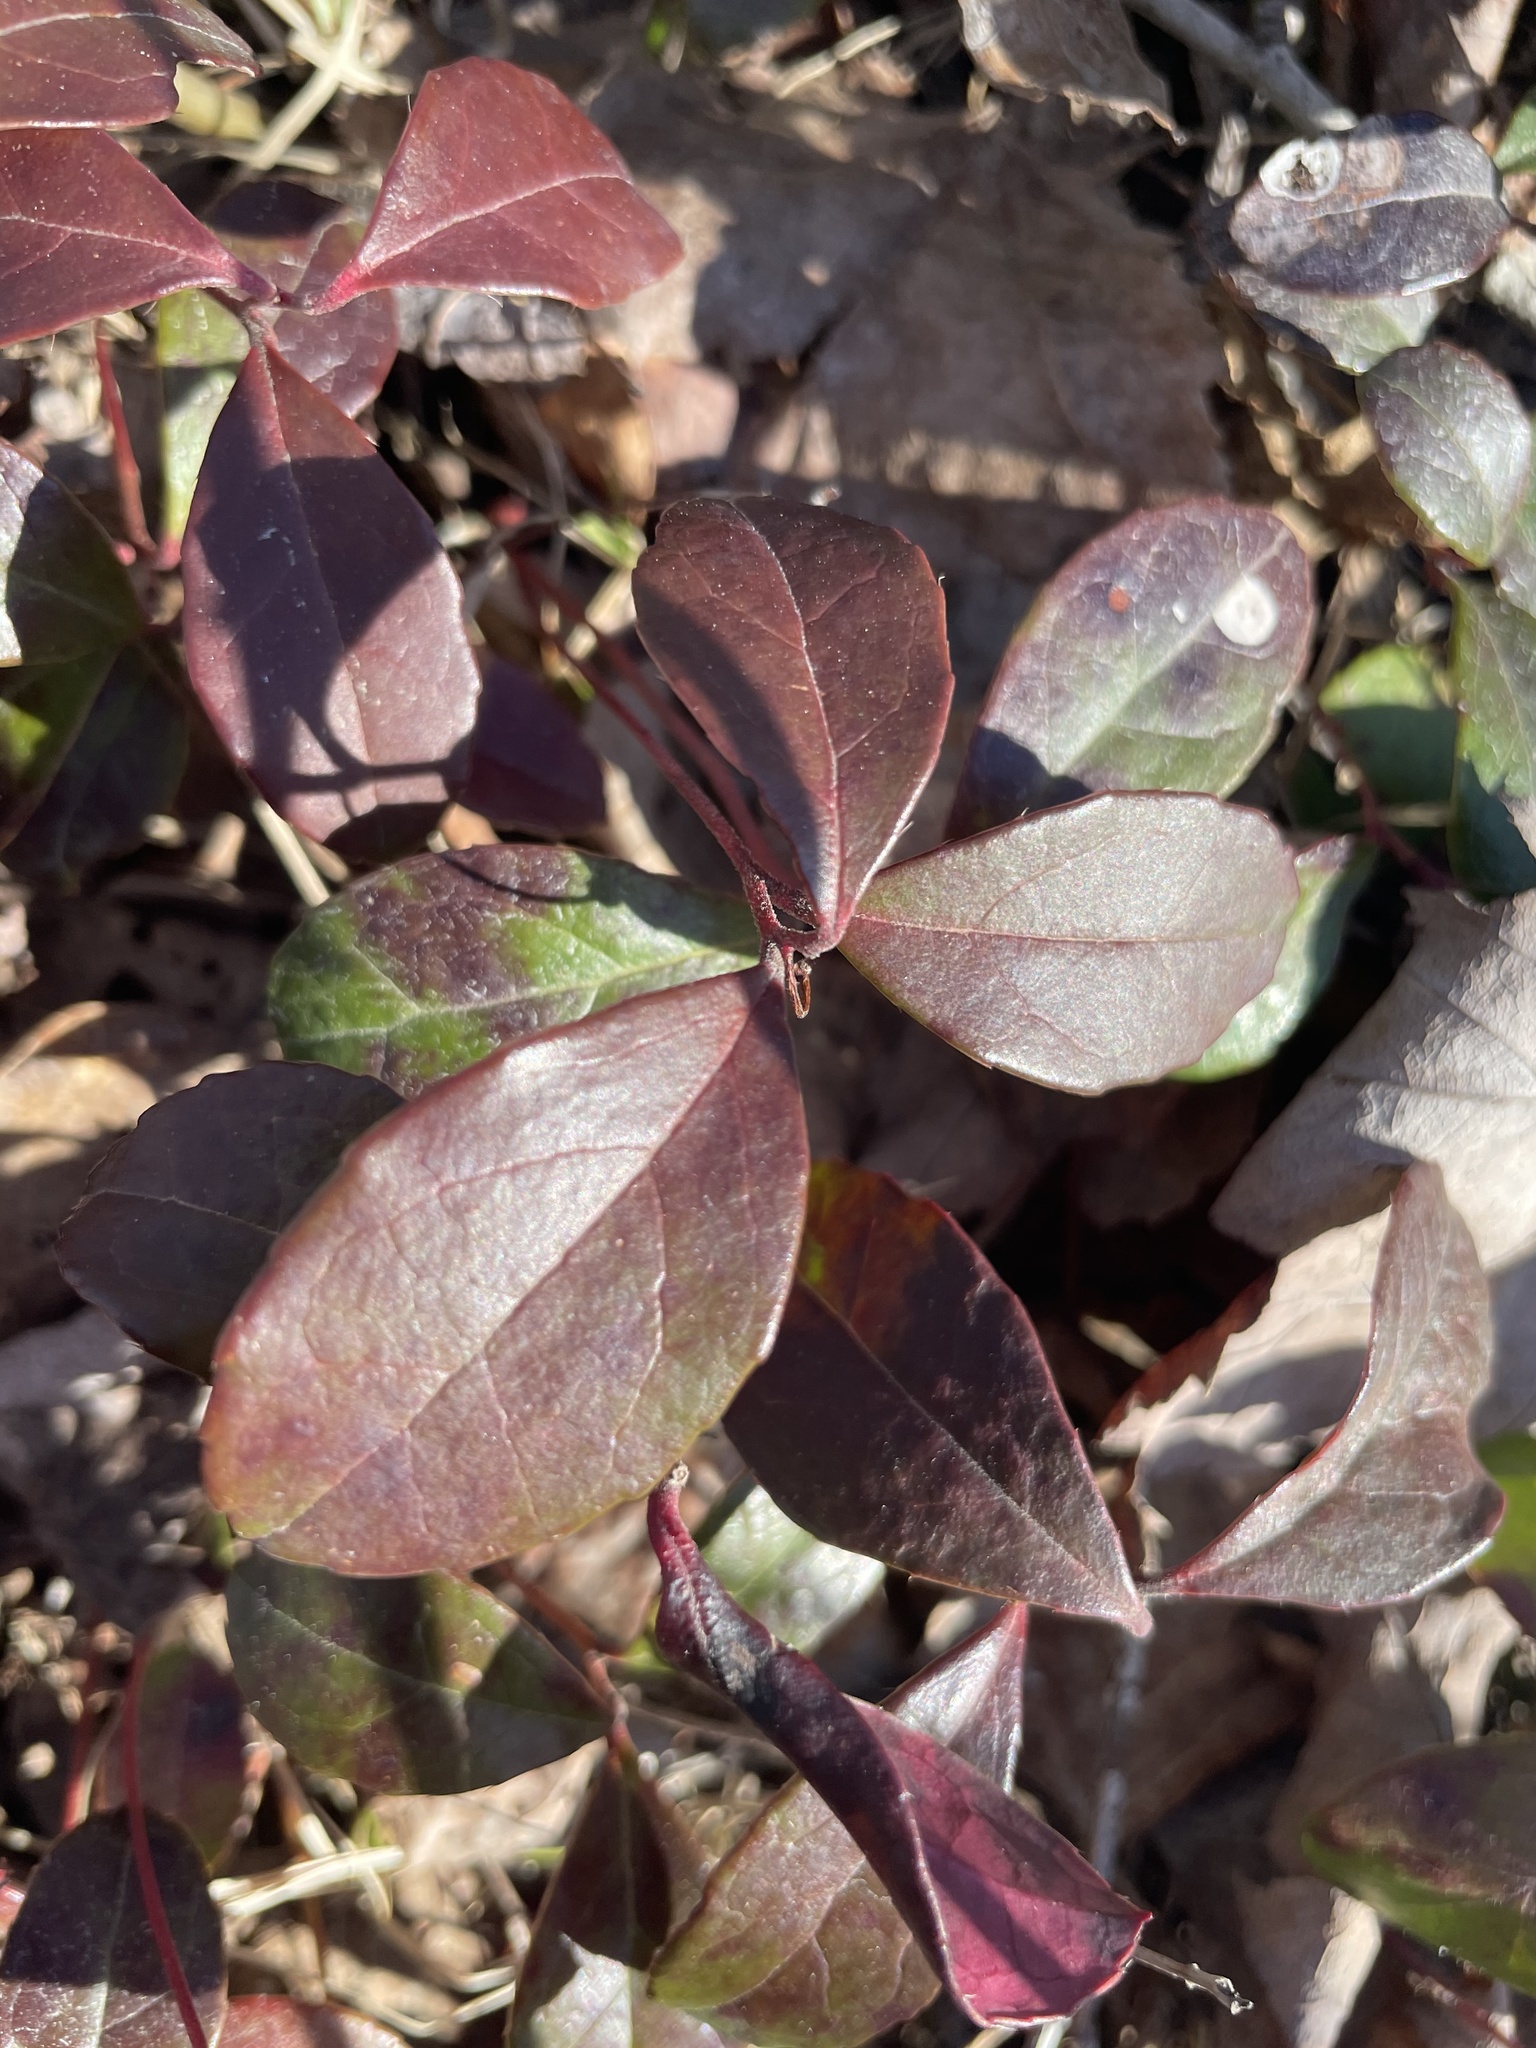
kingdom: Plantae
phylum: Tracheophyta
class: Magnoliopsida
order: Ericales
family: Ericaceae
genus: Gaultheria
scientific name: Gaultheria procumbens
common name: Checkerberry
